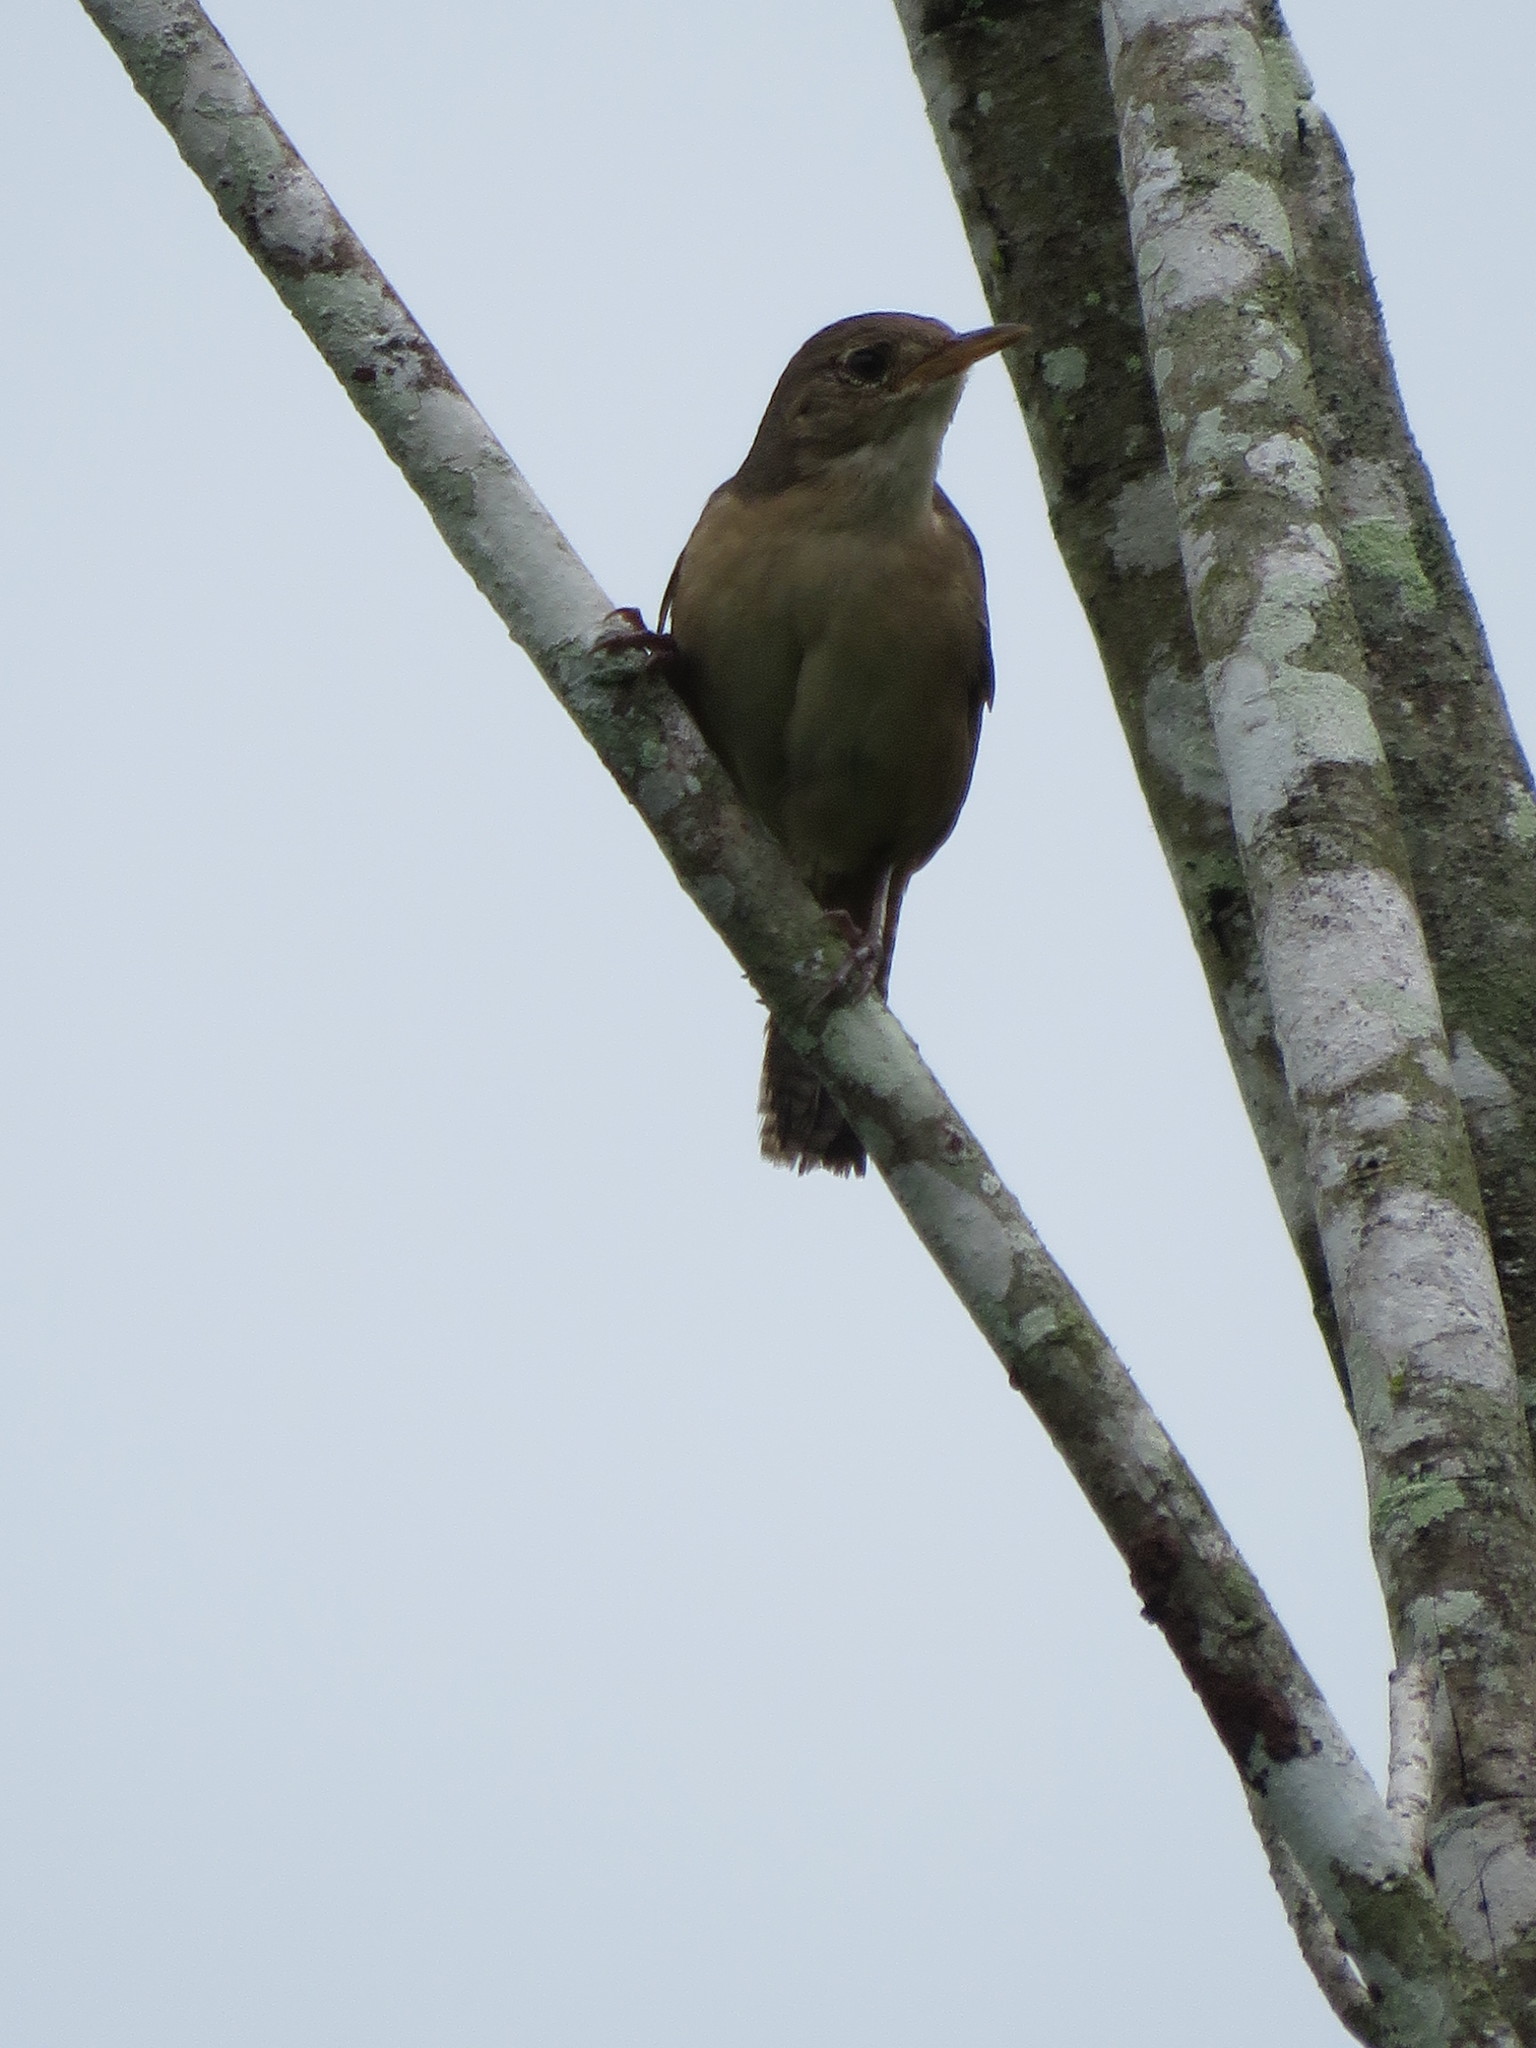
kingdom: Animalia
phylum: Chordata
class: Aves
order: Passeriformes
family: Troglodytidae
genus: Troglodytes
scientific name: Troglodytes aedon
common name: House wren
